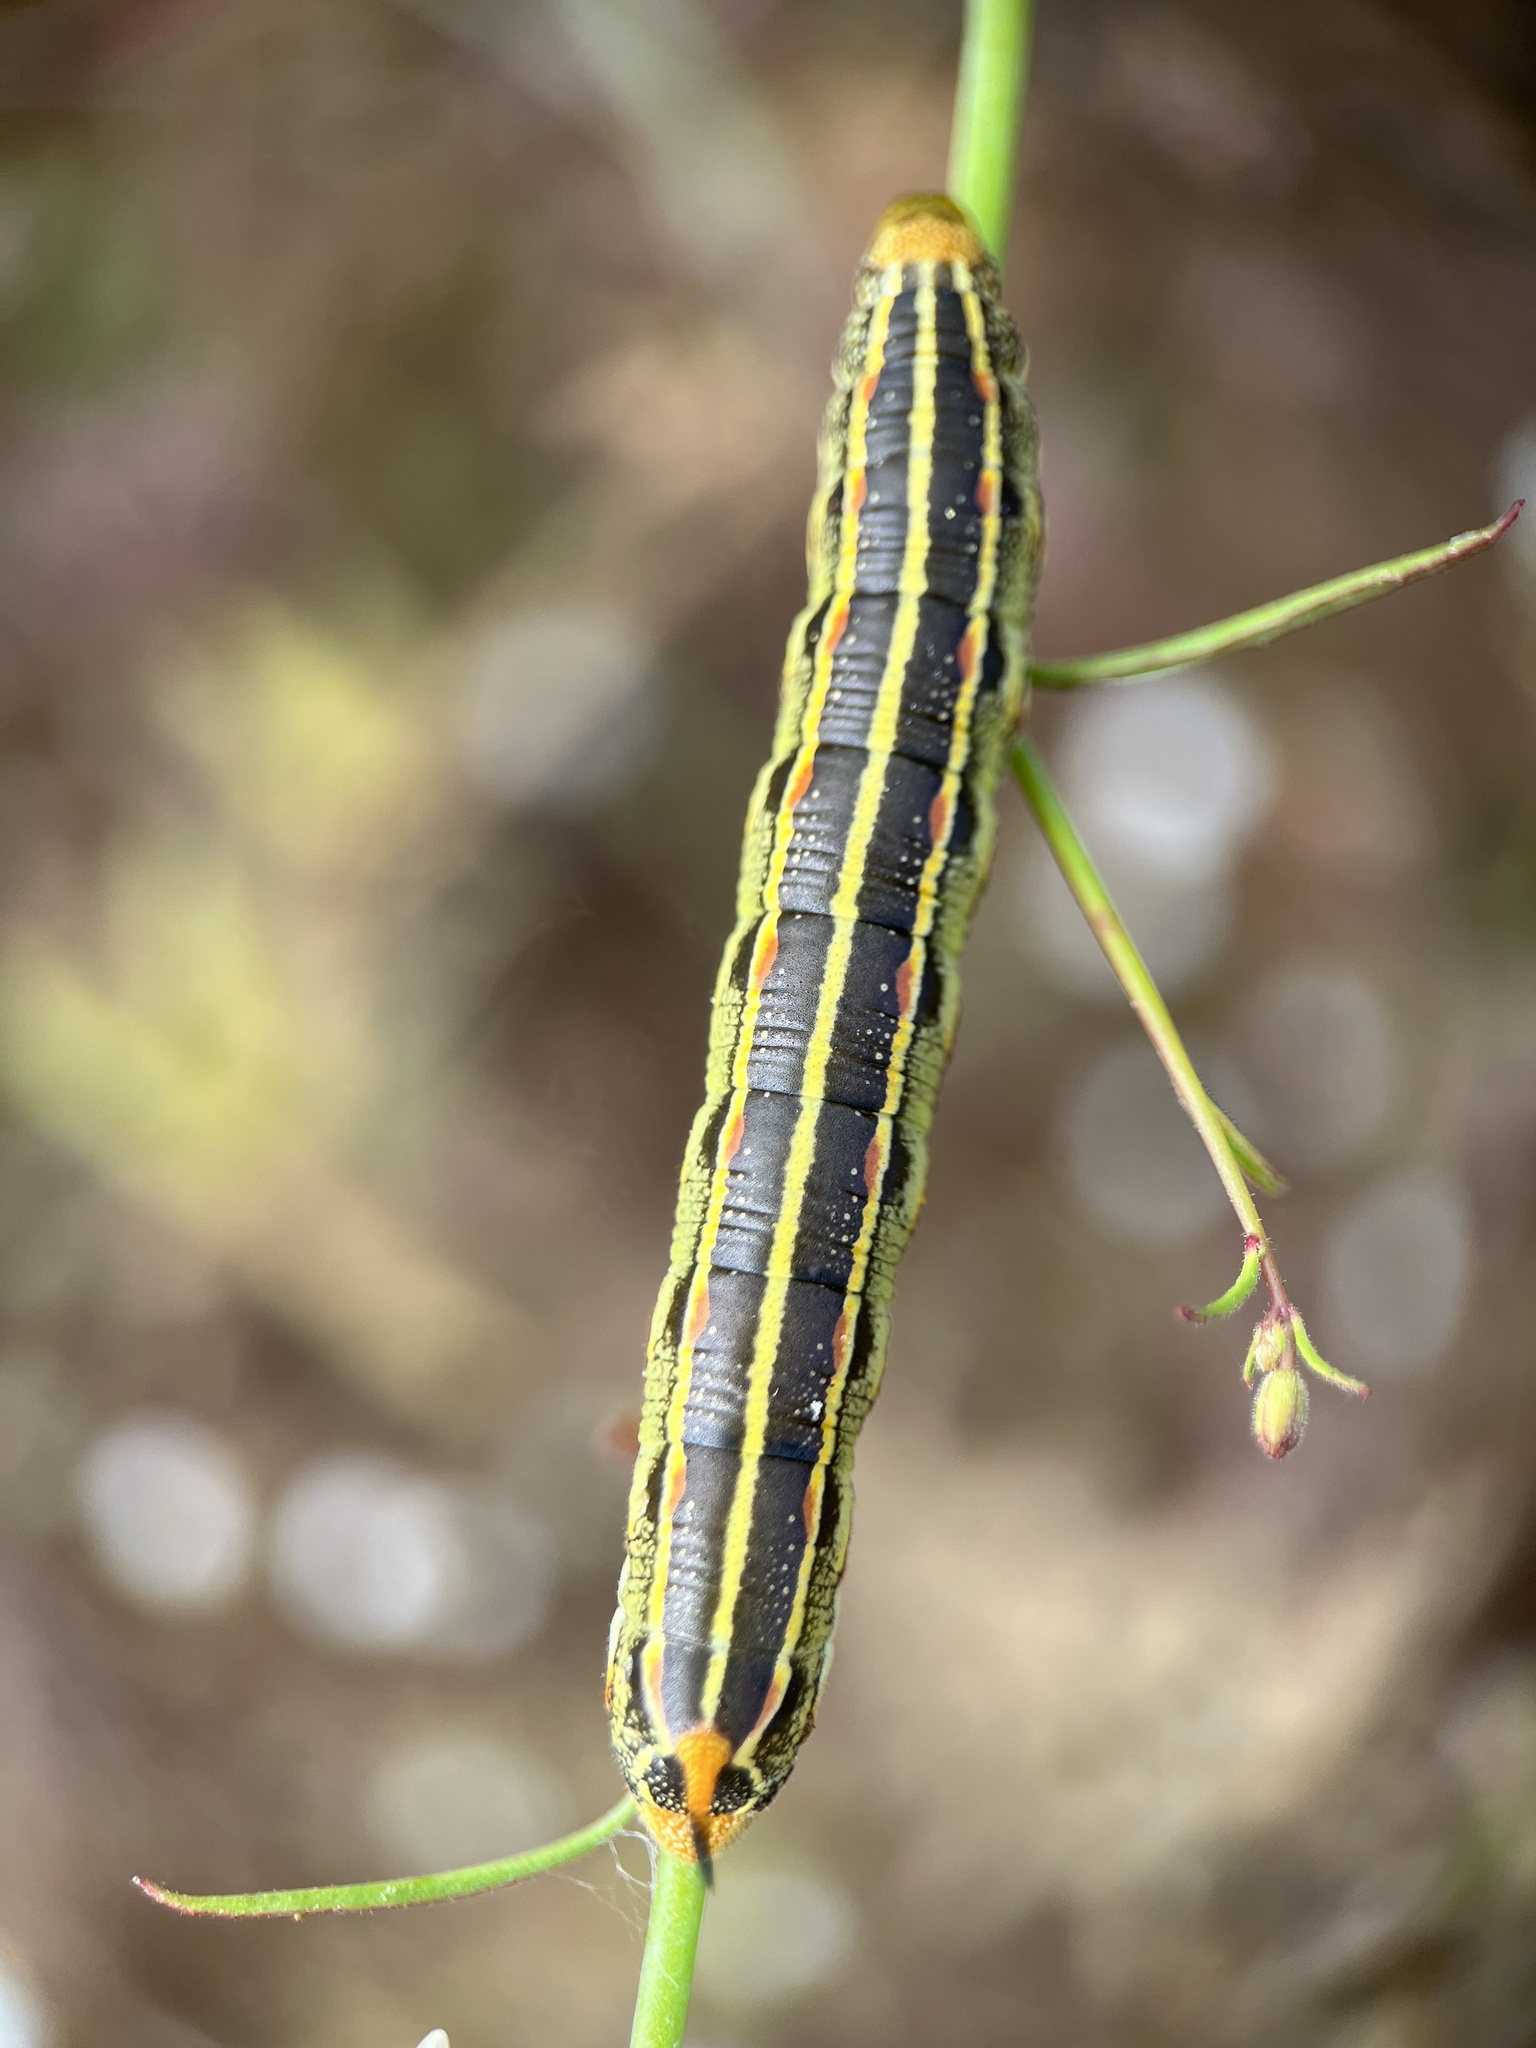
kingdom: Animalia
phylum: Arthropoda
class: Insecta
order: Lepidoptera
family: Sphingidae
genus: Hyles
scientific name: Hyles lineata
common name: White-lined sphinx
